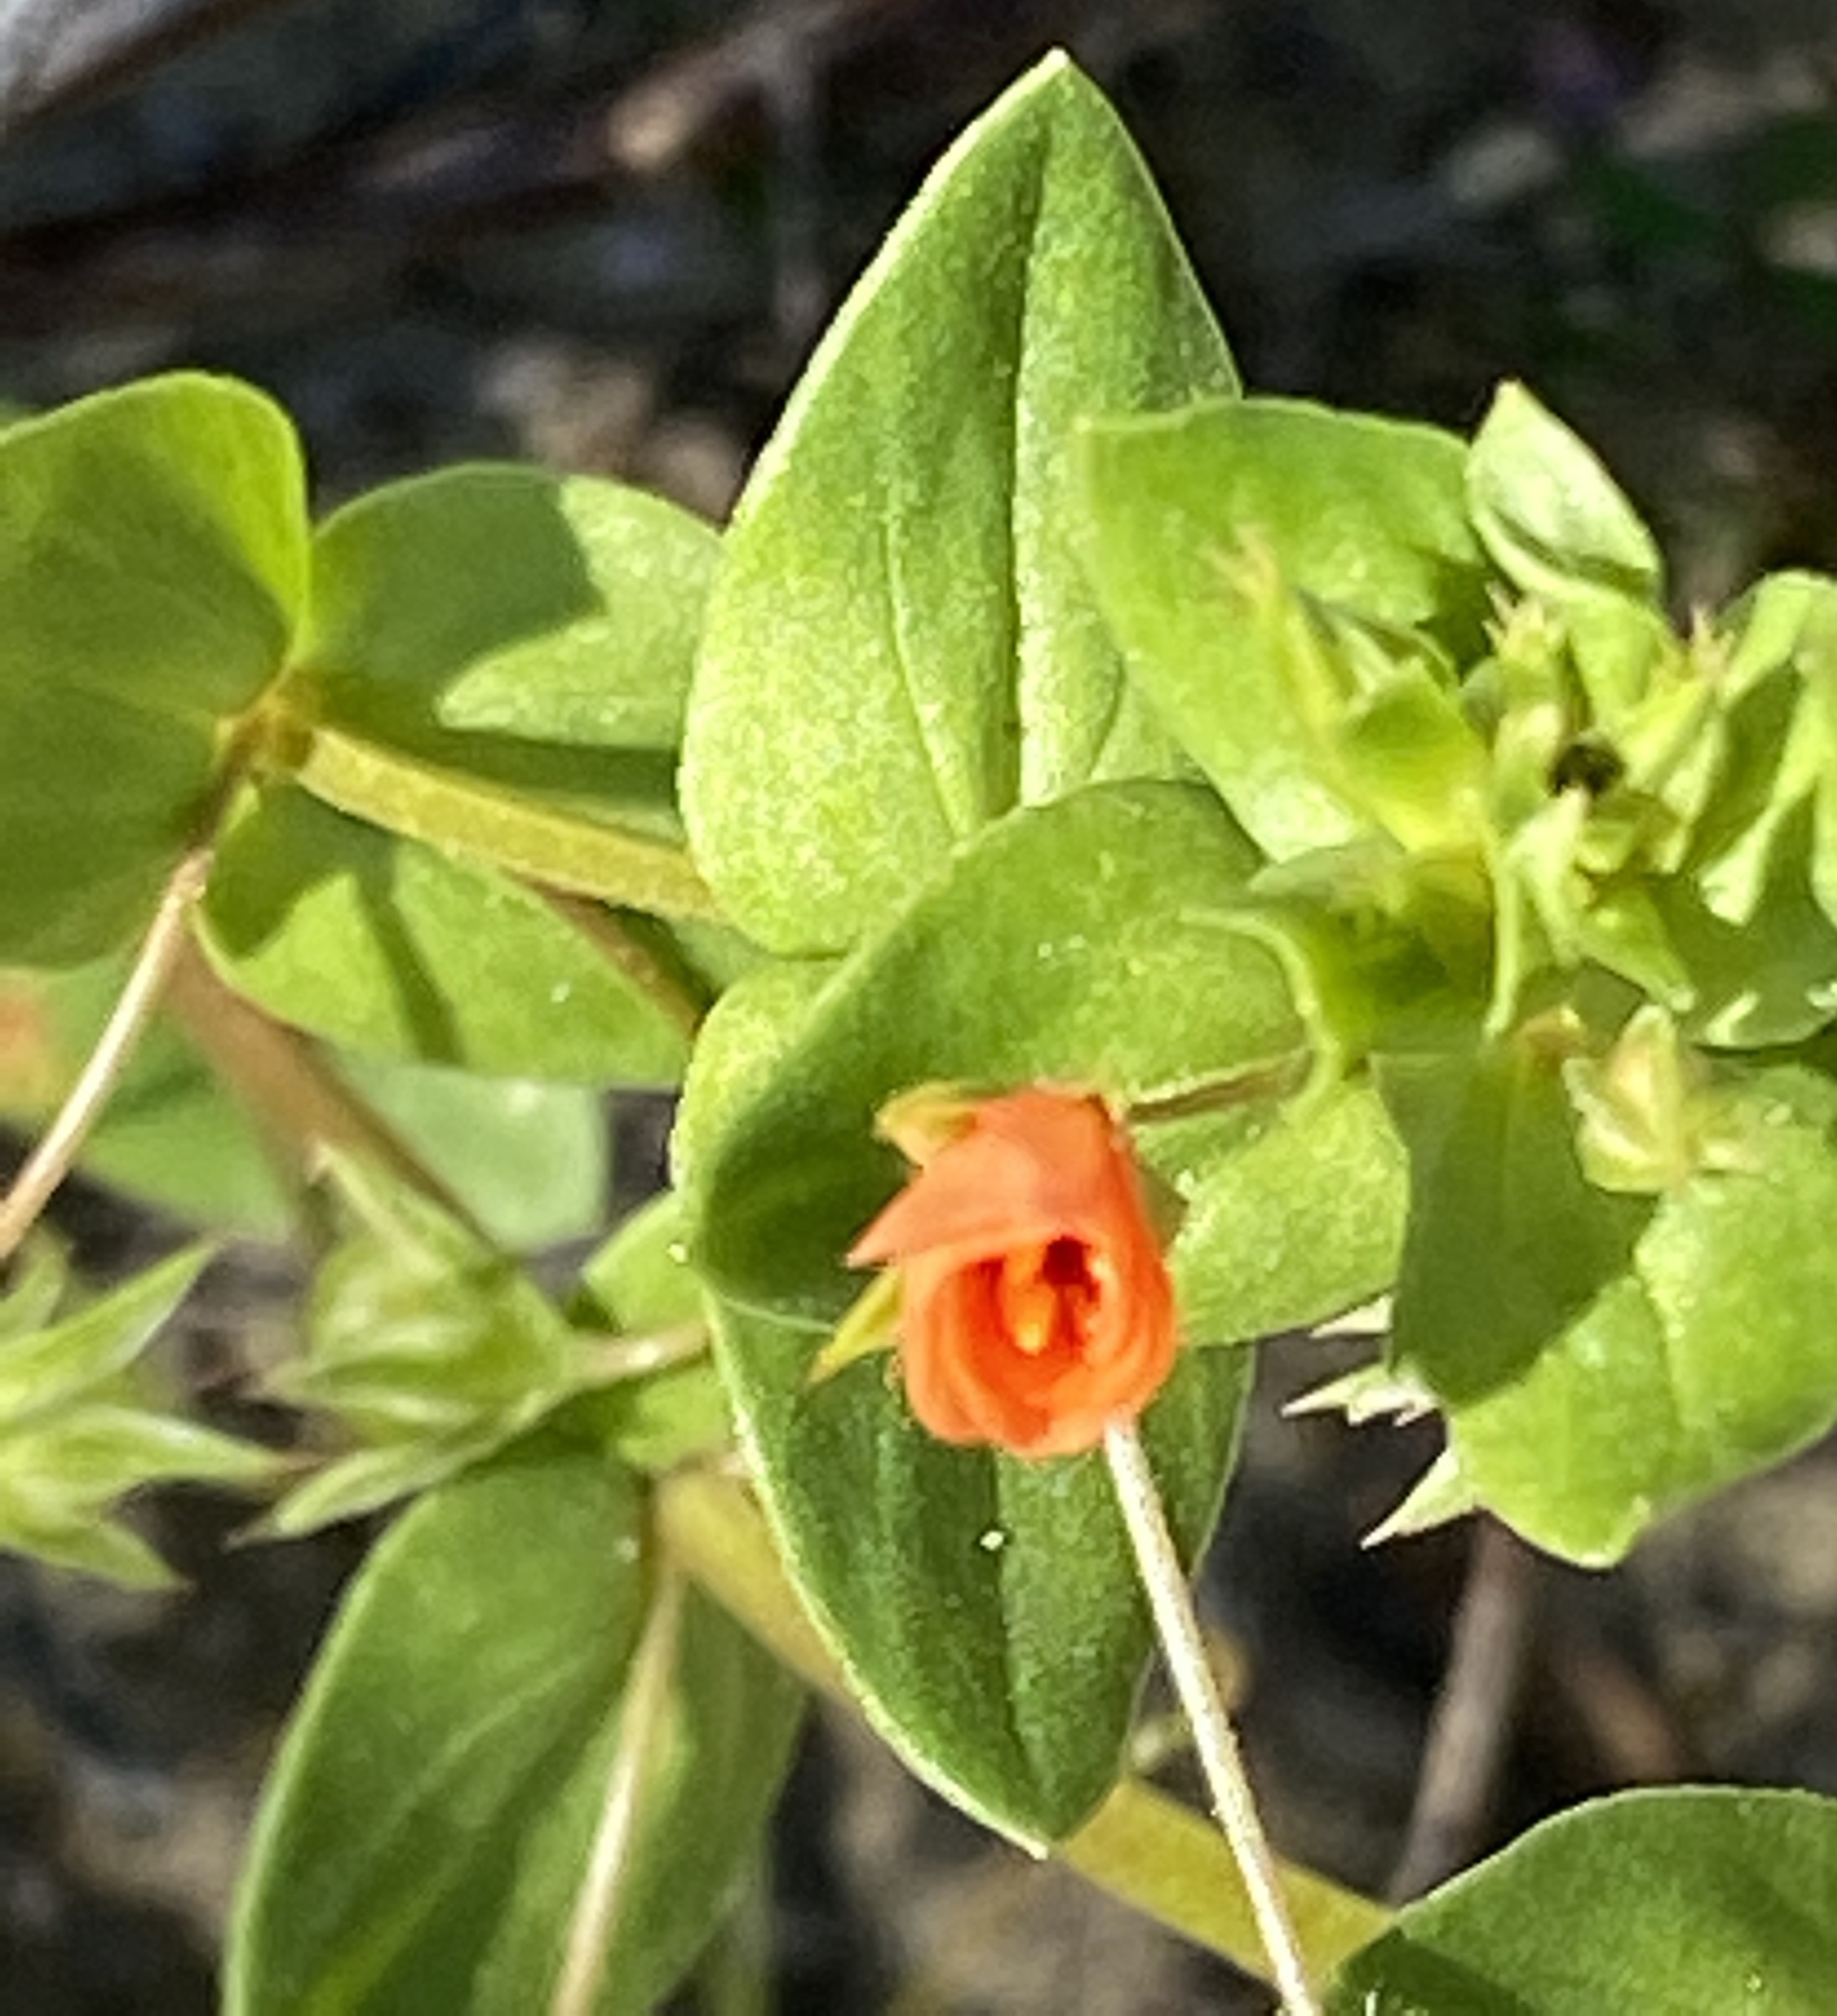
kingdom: Plantae
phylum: Tracheophyta
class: Magnoliopsida
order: Ericales
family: Primulaceae
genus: Lysimachia
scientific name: Lysimachia arvensis
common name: Scarlet pimpernel
